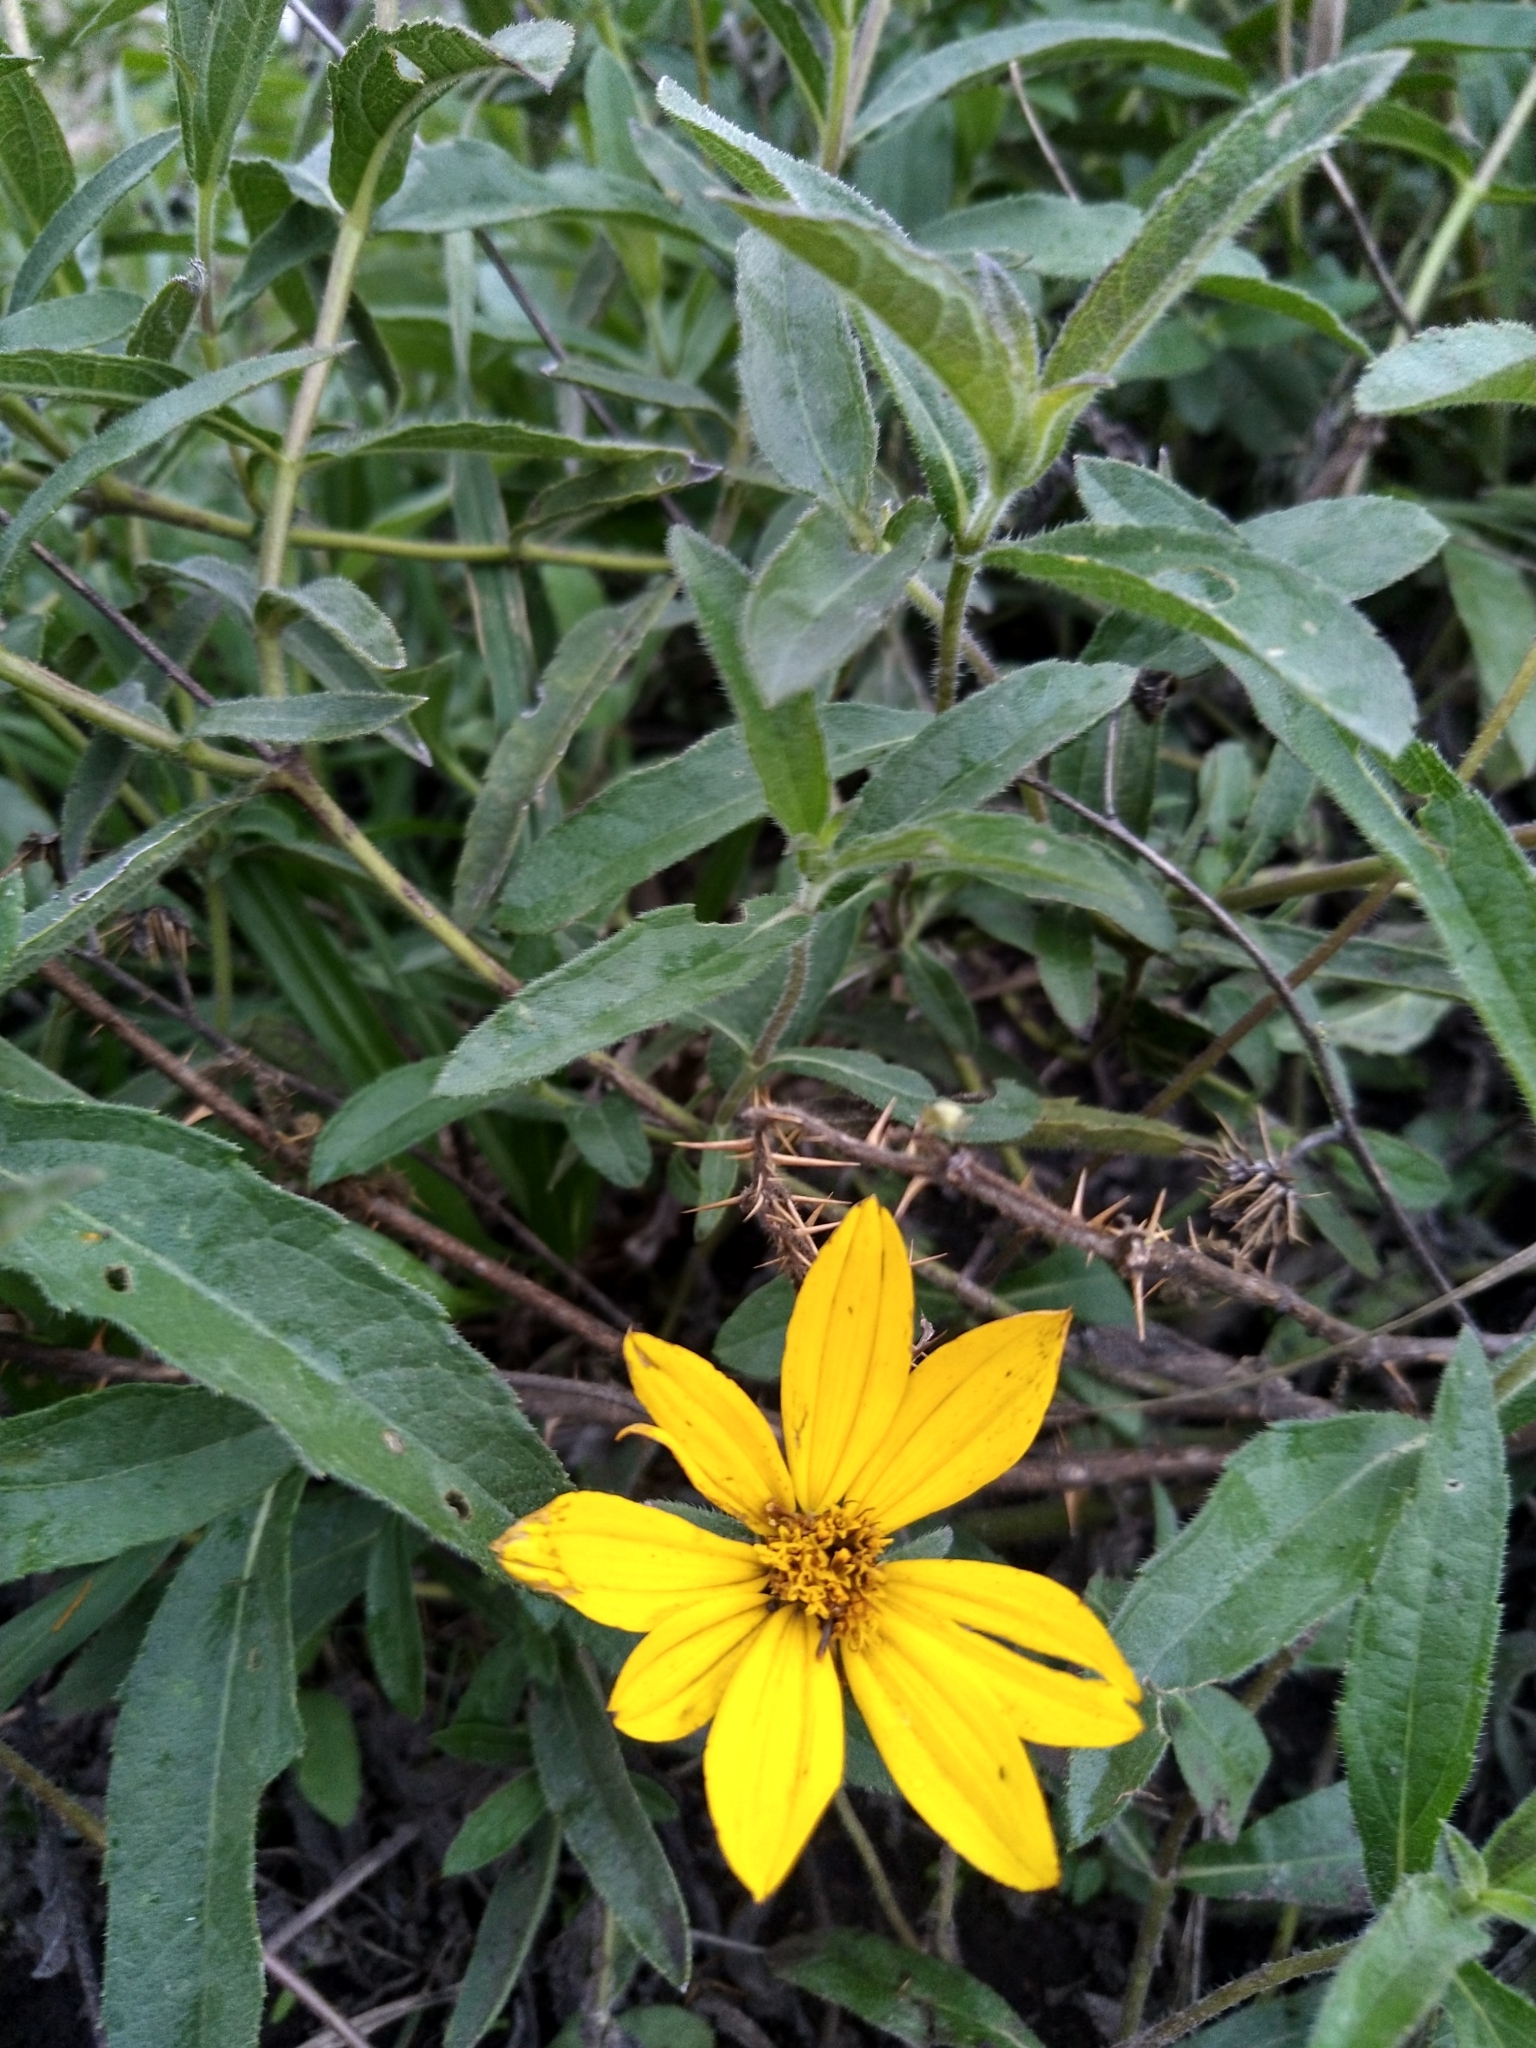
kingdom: Plantae
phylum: Tracheophyta
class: Magnoliopsida
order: Asterales
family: Asteraceae
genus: Wedelia
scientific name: Wedelia silphioides
